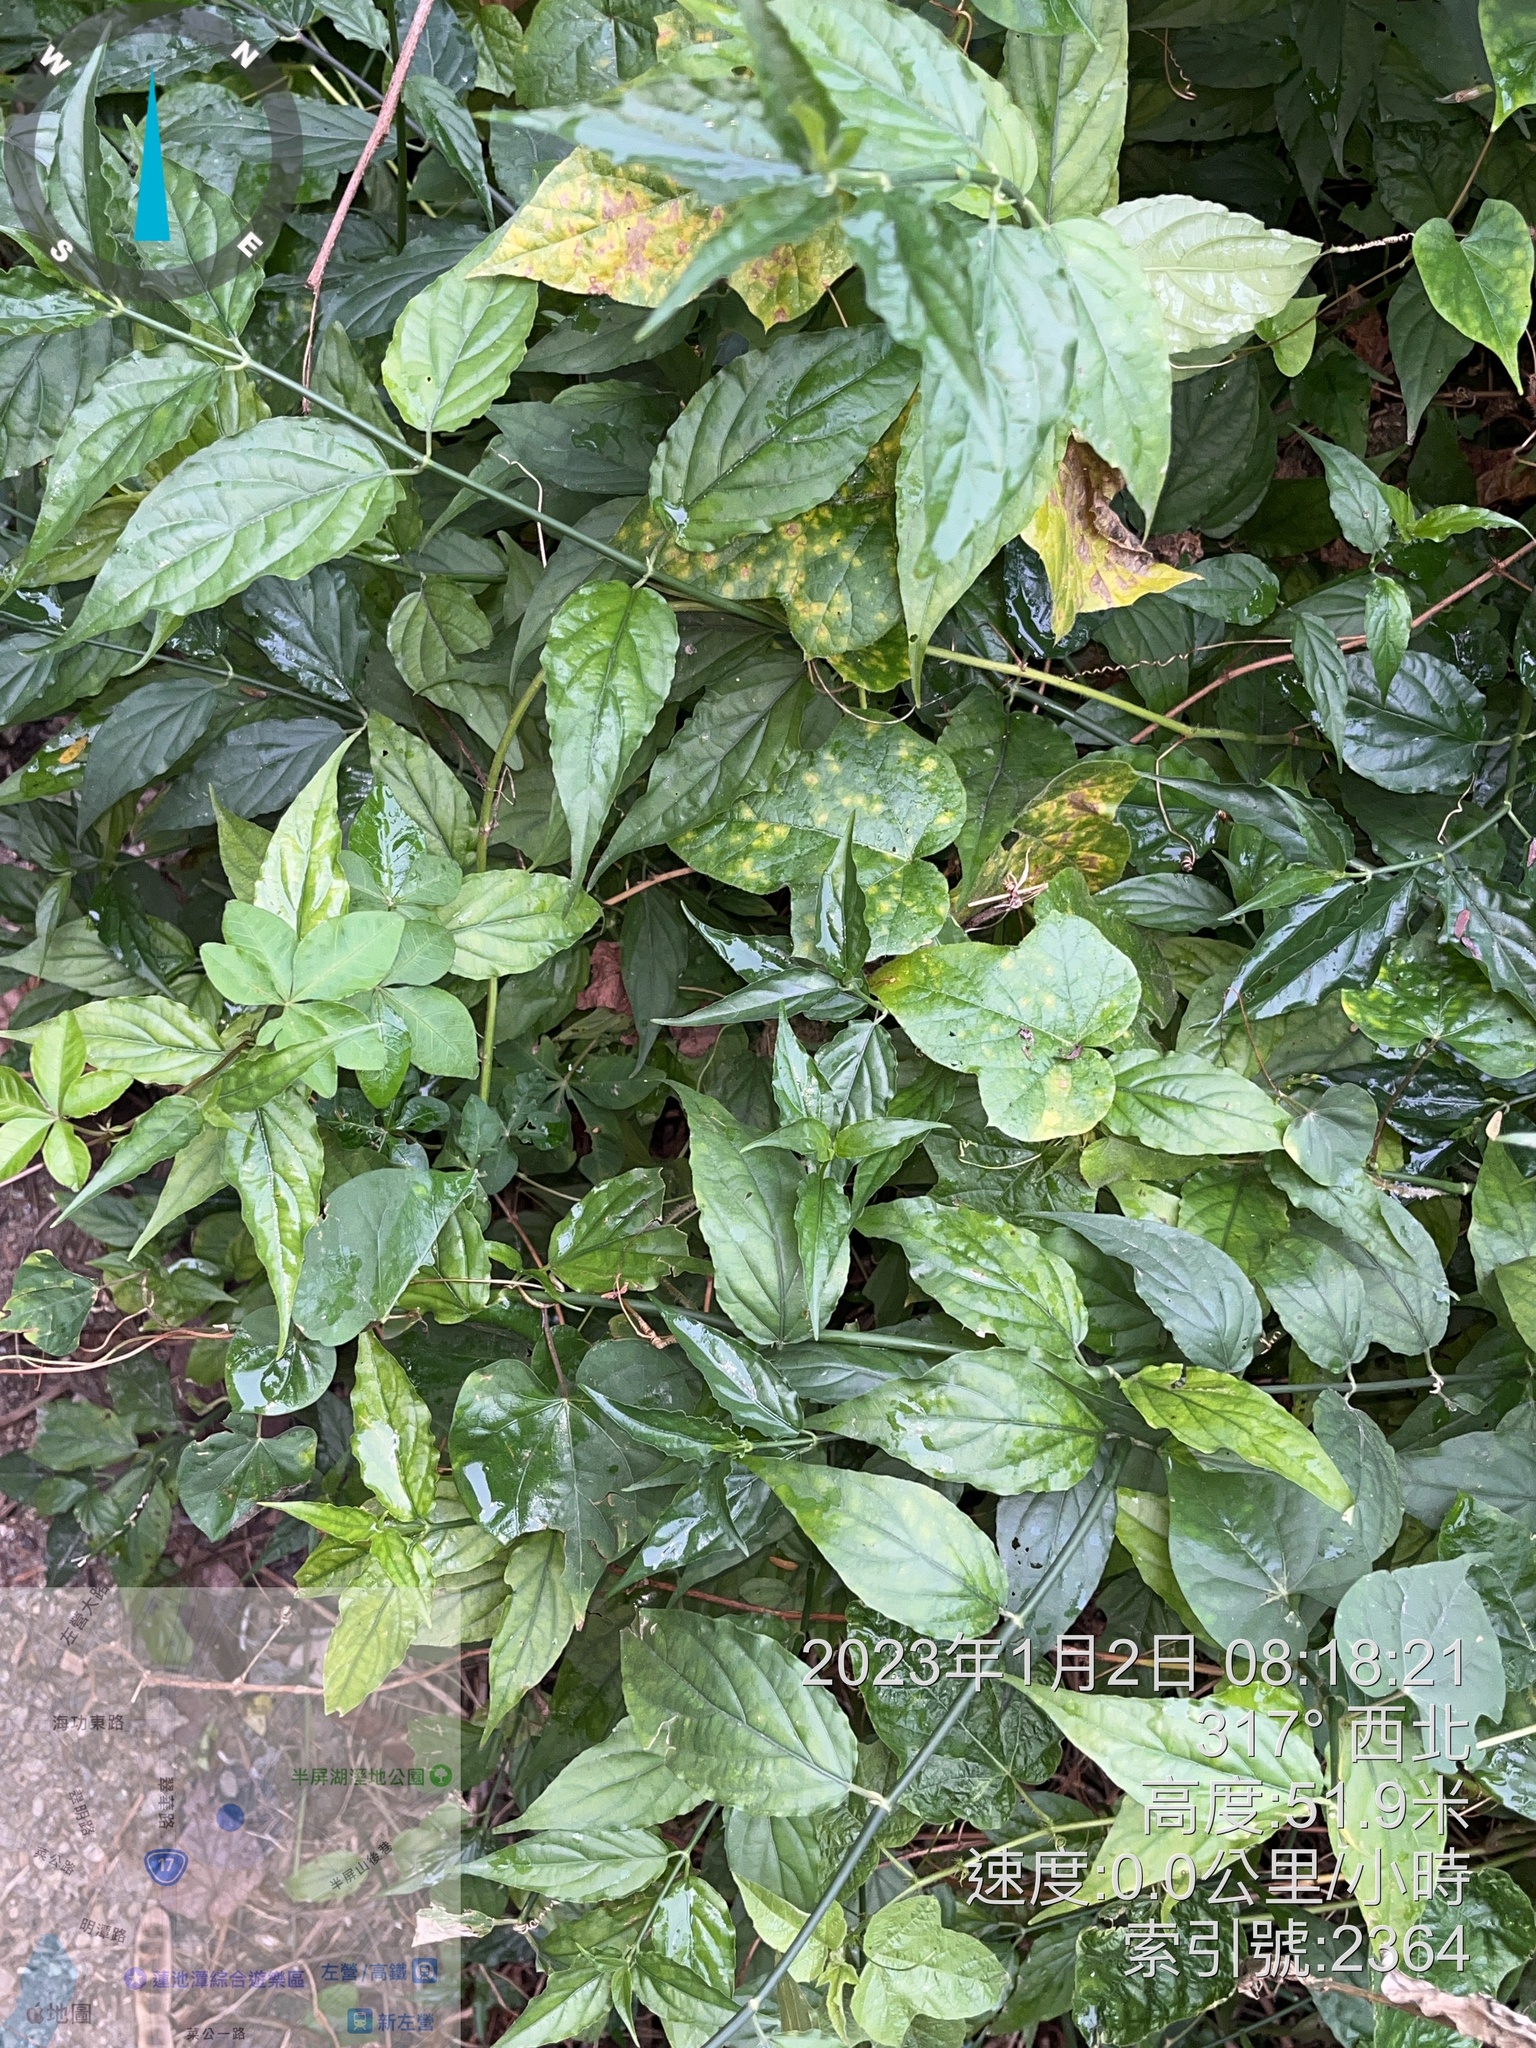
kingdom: Plantae
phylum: Tracheophyta
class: Magnoliopsida
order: Lamiales
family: Acanthaceae
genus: Clinacanthus
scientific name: Clinacanthus nutans
